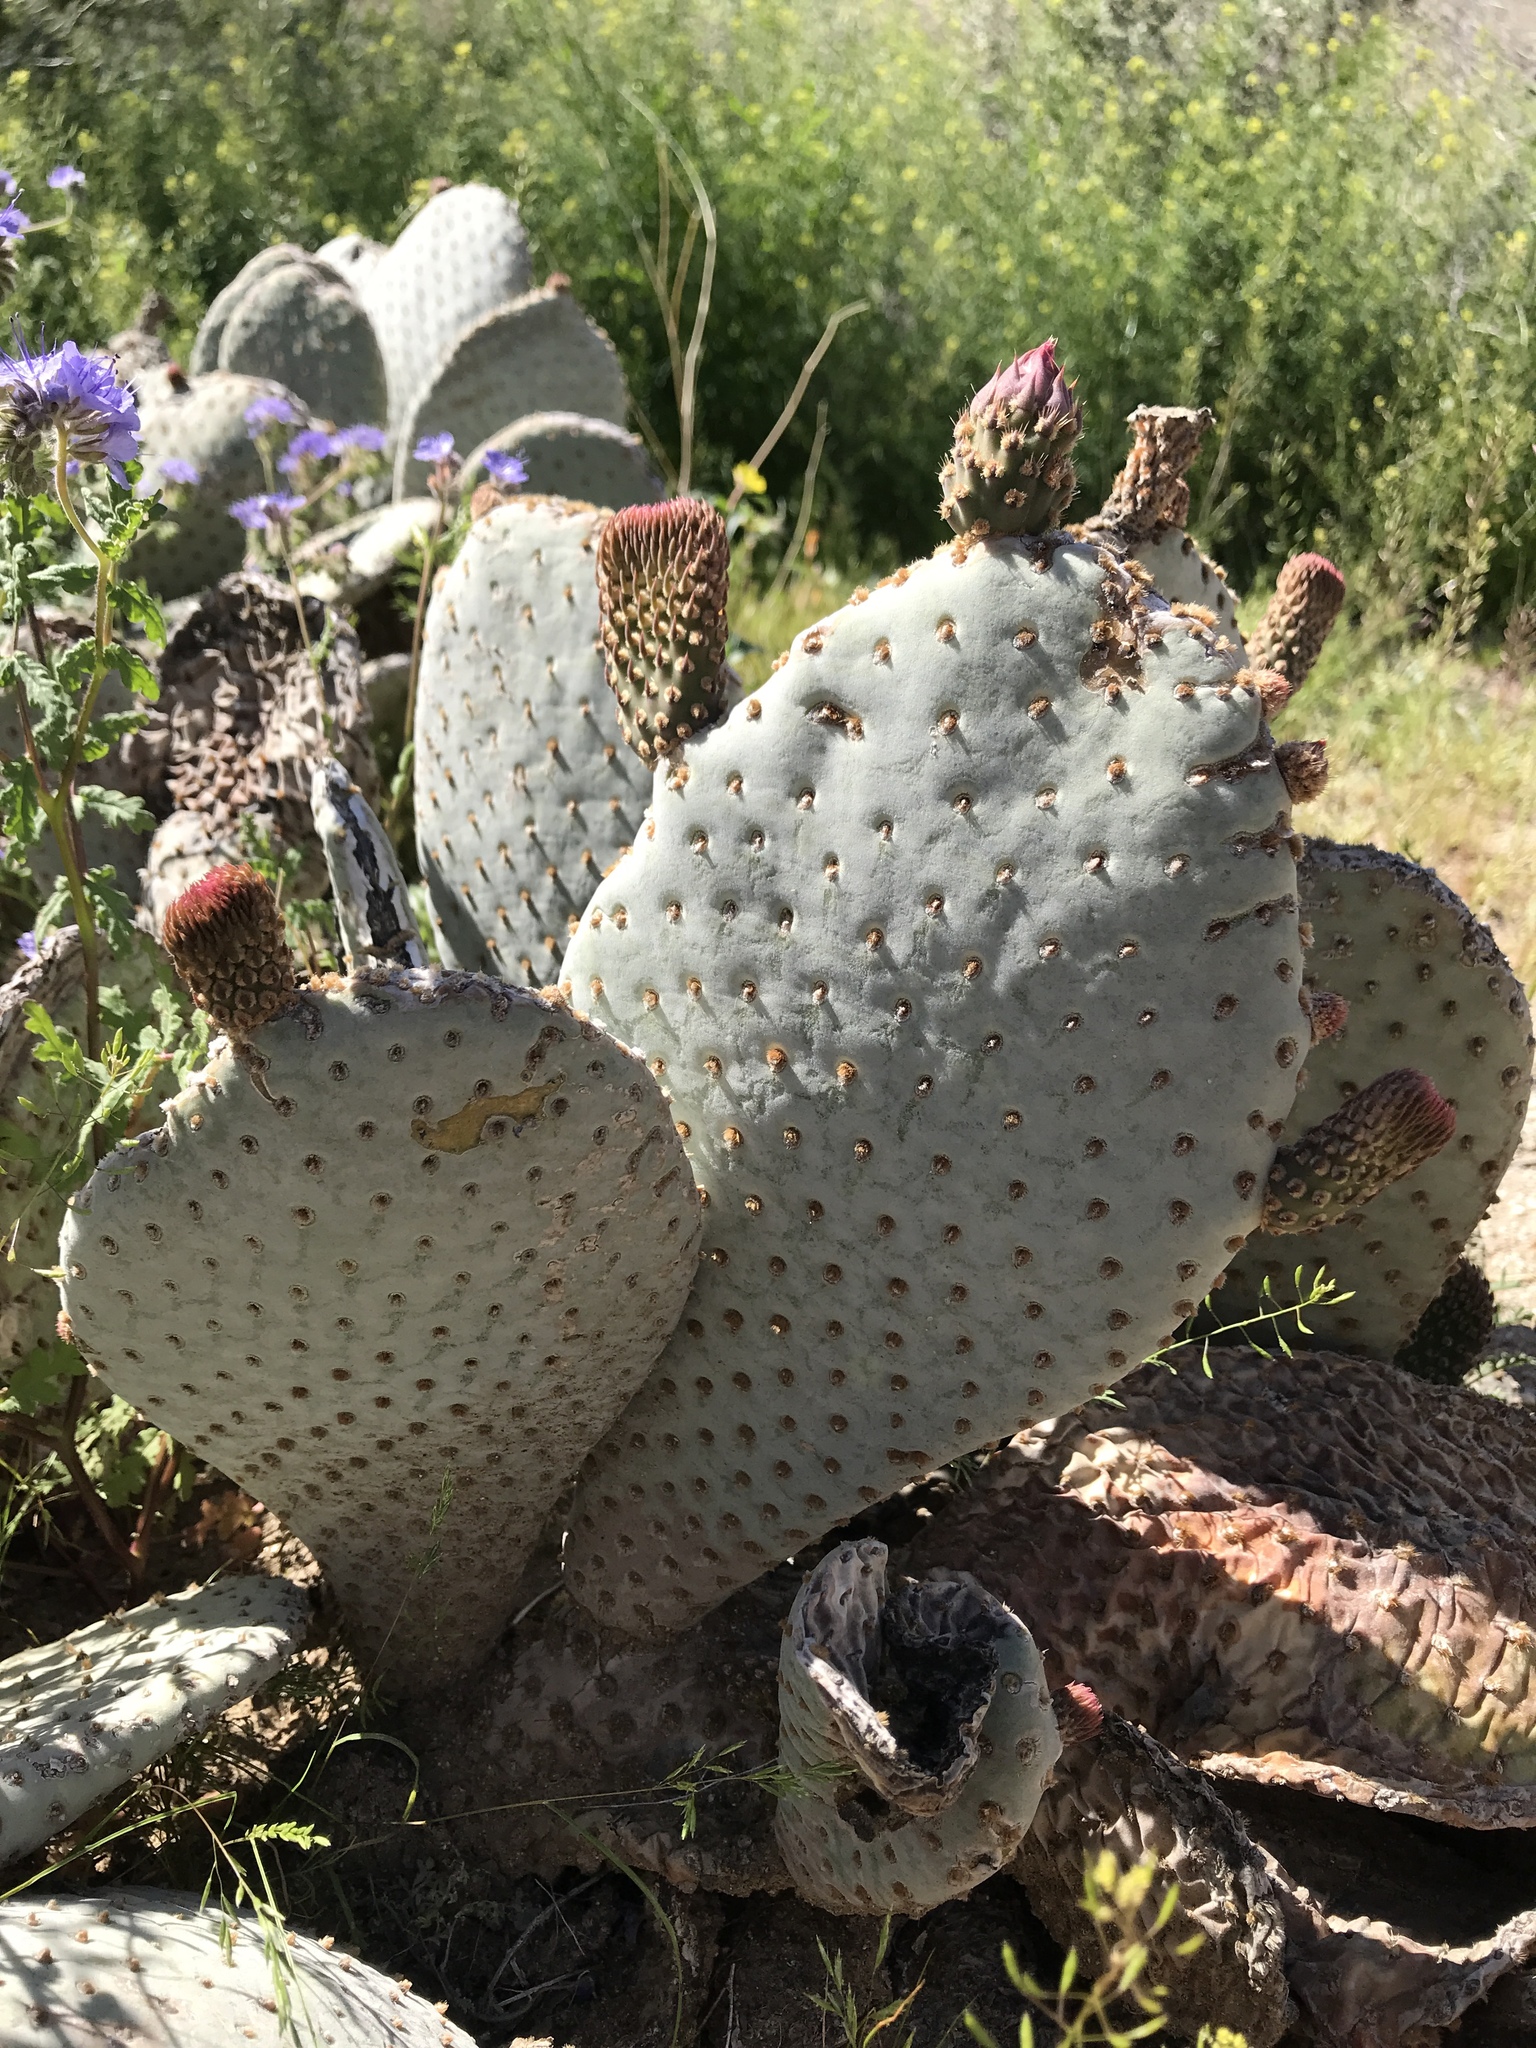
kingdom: Plantae
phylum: Tracheophyta
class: Magnoliopsida
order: Caryophyllales
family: Cactaceae
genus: Opuntia
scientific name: Opuntia basilaris
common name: Beavertail prickly-pear
